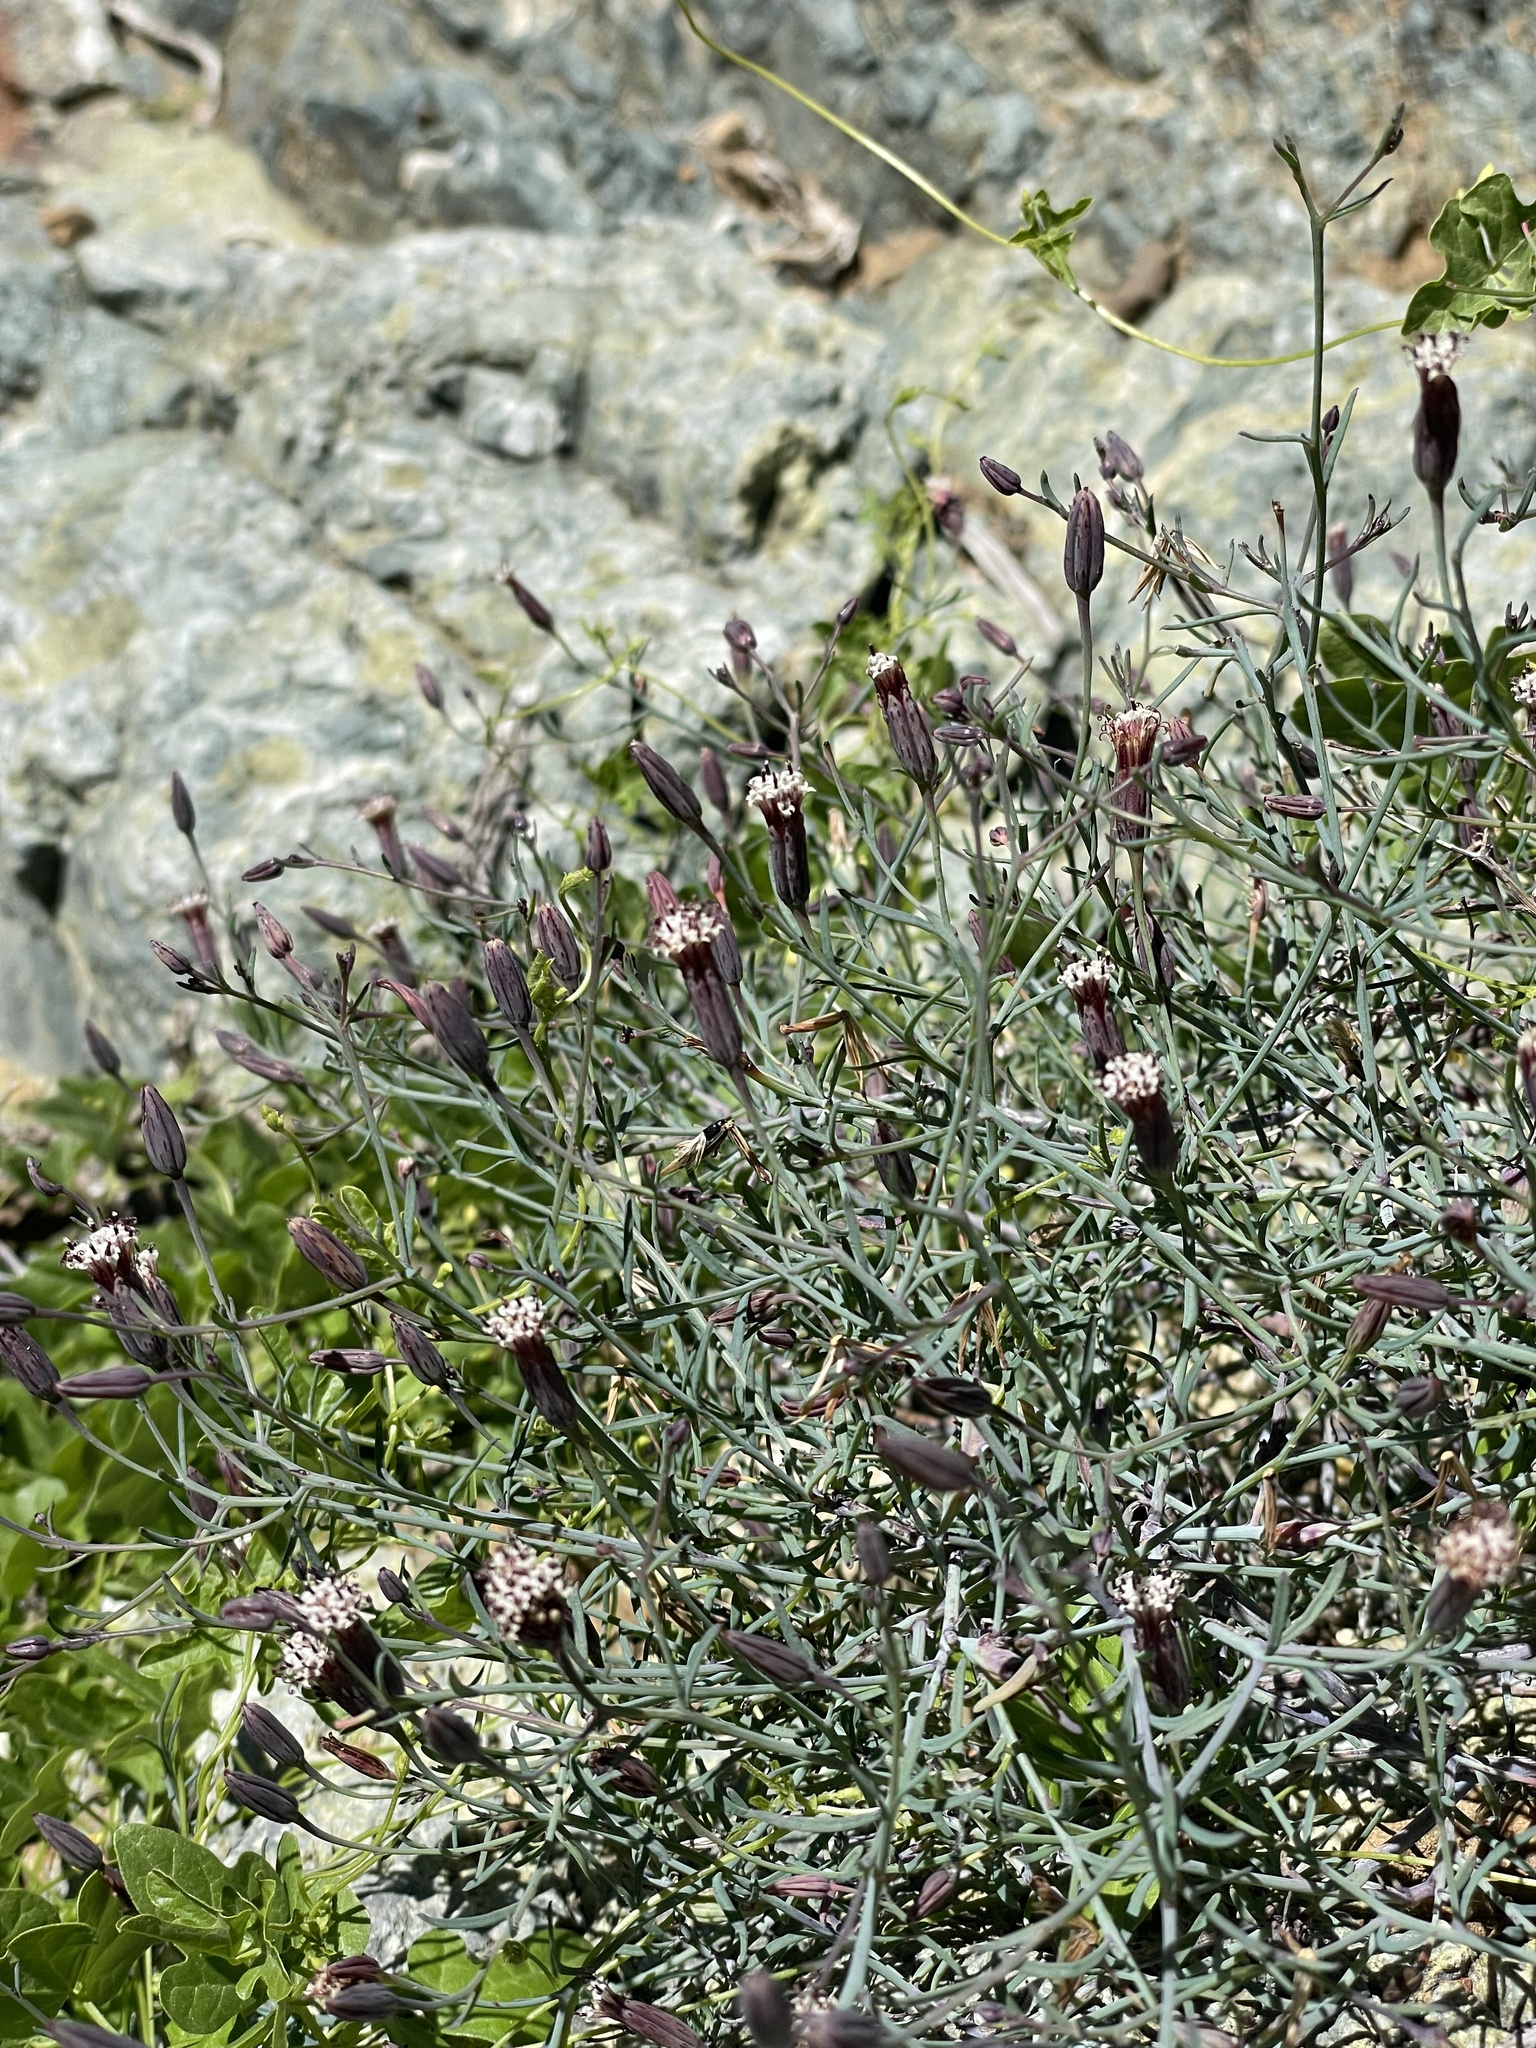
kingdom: Plantae
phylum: Tracheophyta
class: Magnoliopsida
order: Asterales
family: Asteraceae
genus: Porophyllum
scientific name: Porophyllum gracile
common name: Odora
